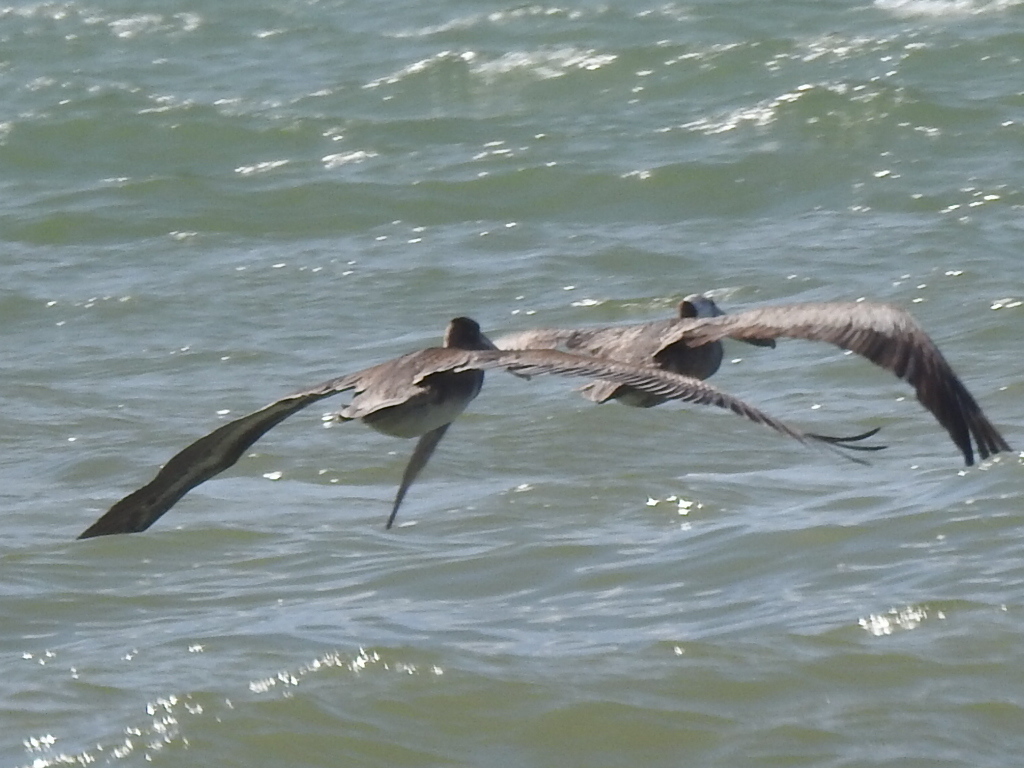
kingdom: Animalia
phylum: Chordata
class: Aves
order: Pelecaniformes
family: Pelecanidae
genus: Pelecanus
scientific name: Pelecanus occidentalis
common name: Brown pelican
